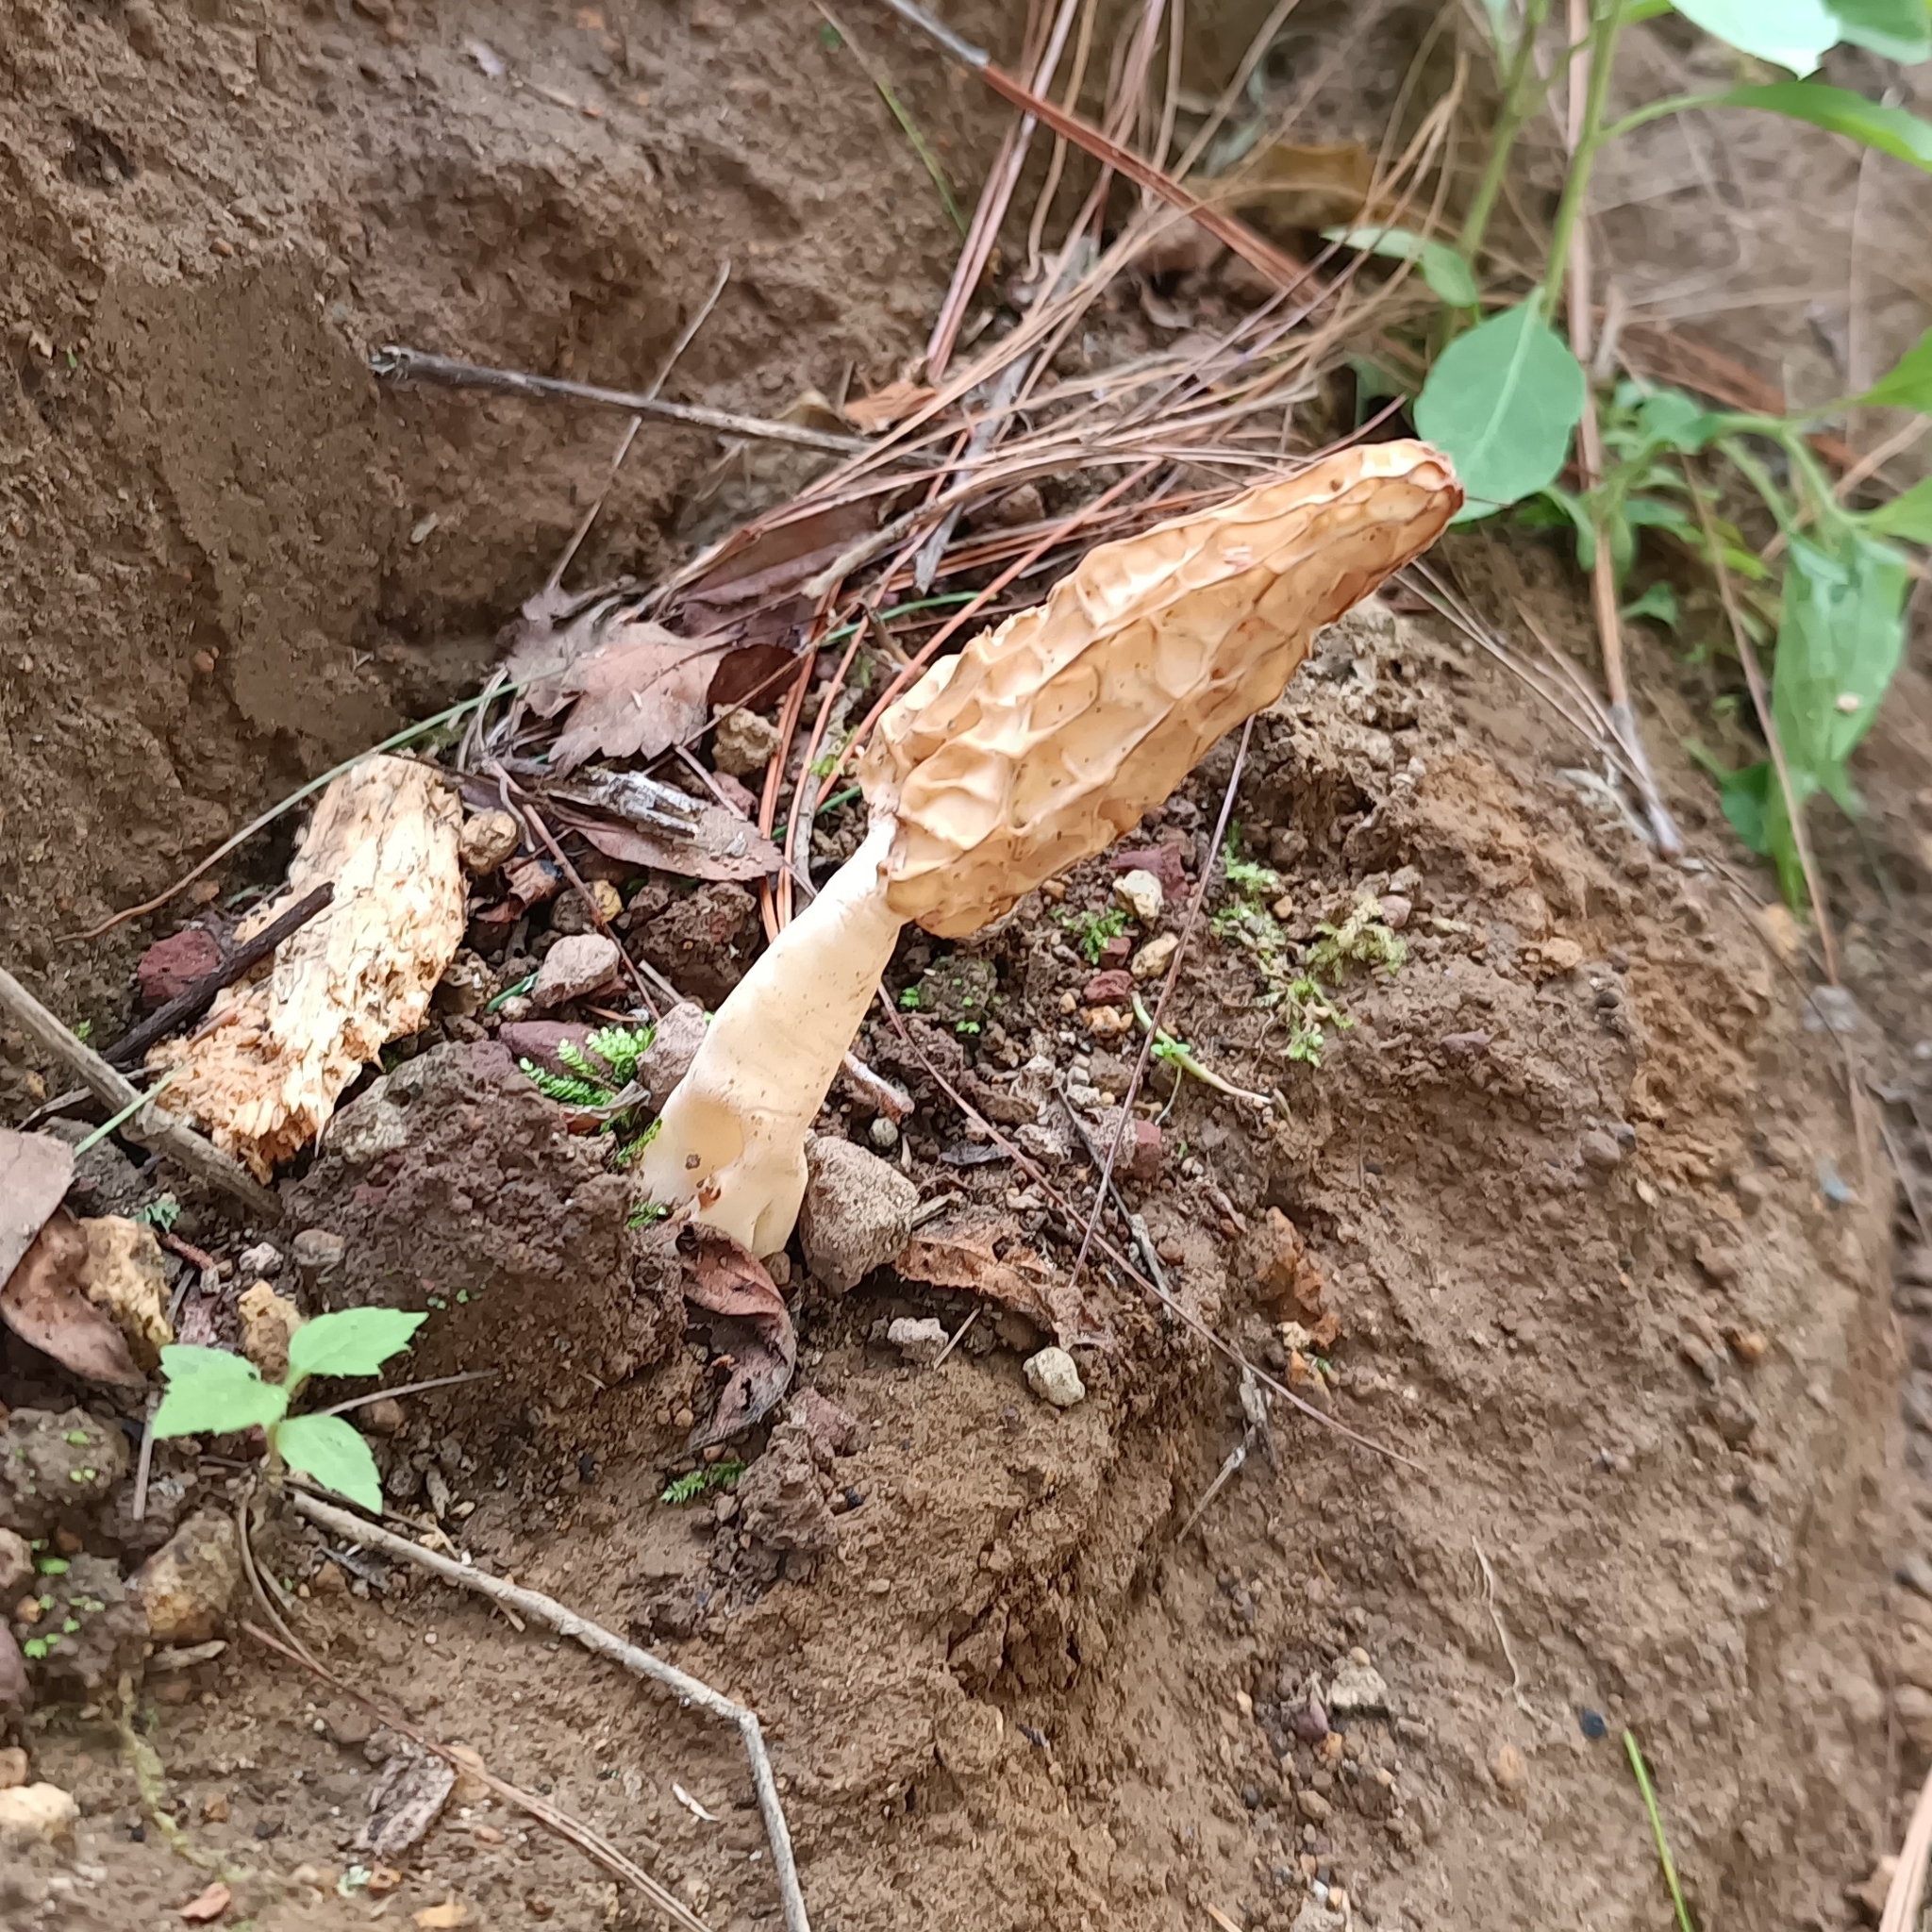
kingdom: Fungi
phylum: Ascomycota
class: Pezizomycetes
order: Pezizales
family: Morchellaceae
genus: Morchella
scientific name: Morchella rufobrunnea
